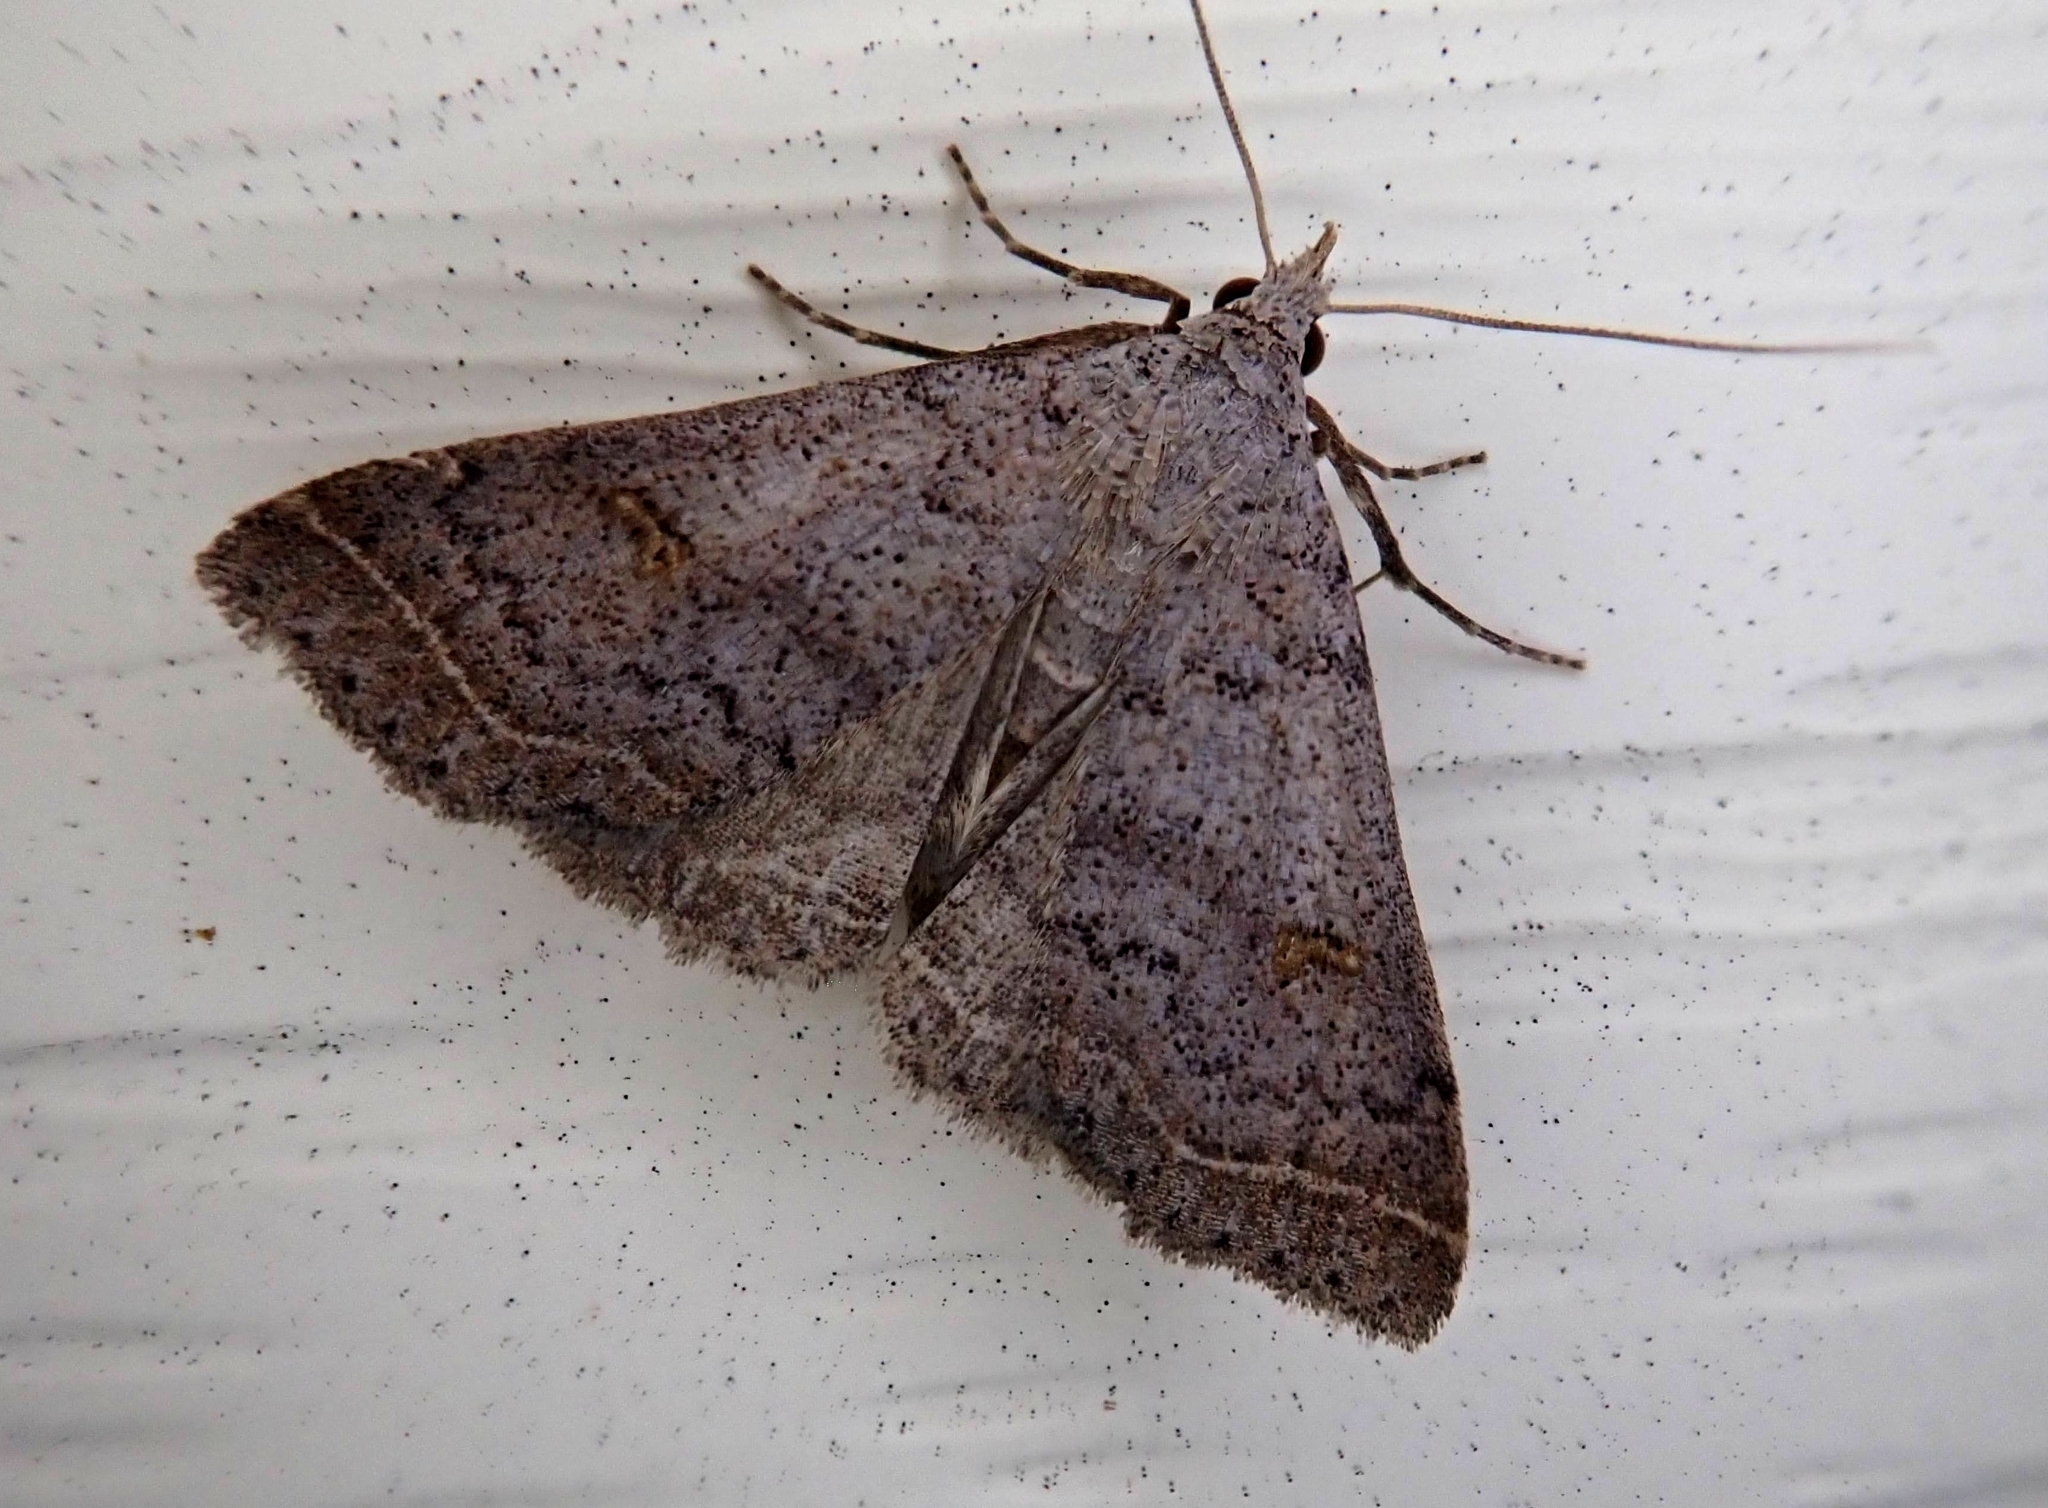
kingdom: Animalia
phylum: Arthropoda
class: Insecta
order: Lepidoptera
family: Erebidae
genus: Bleptina
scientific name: Bleptina caradrinalis
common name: Bent-winged owlet
